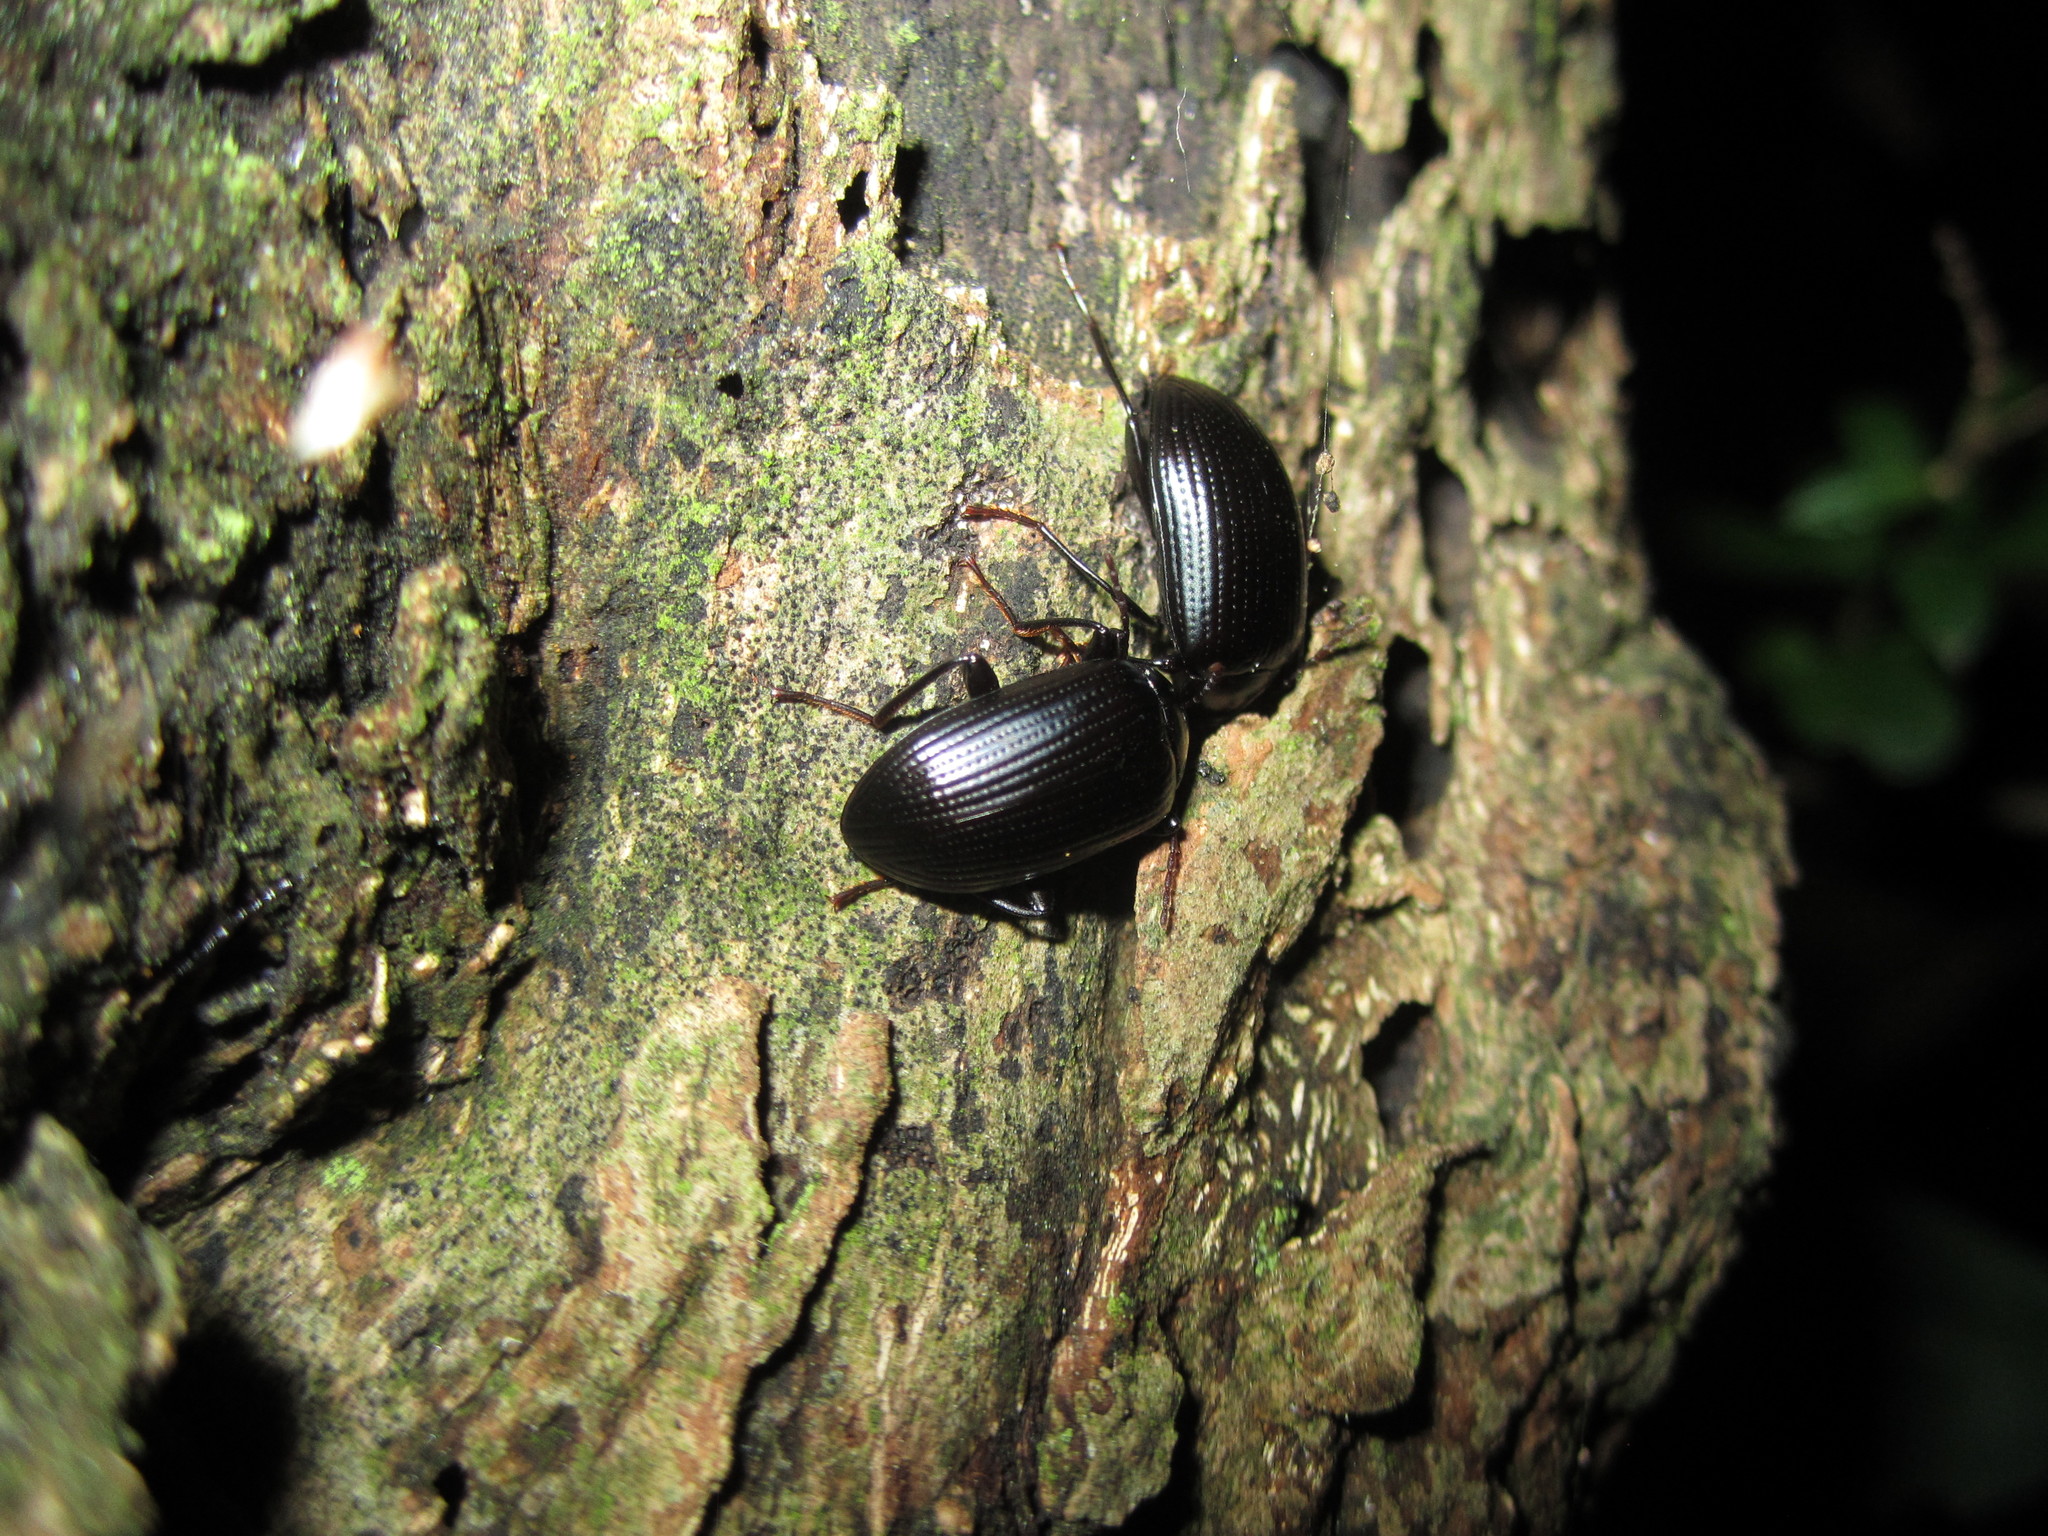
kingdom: Animalia
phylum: Arthropoda
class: Insecta
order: Coleoptera
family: Tenebrionidae
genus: Amarygmus
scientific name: Amarygmus
